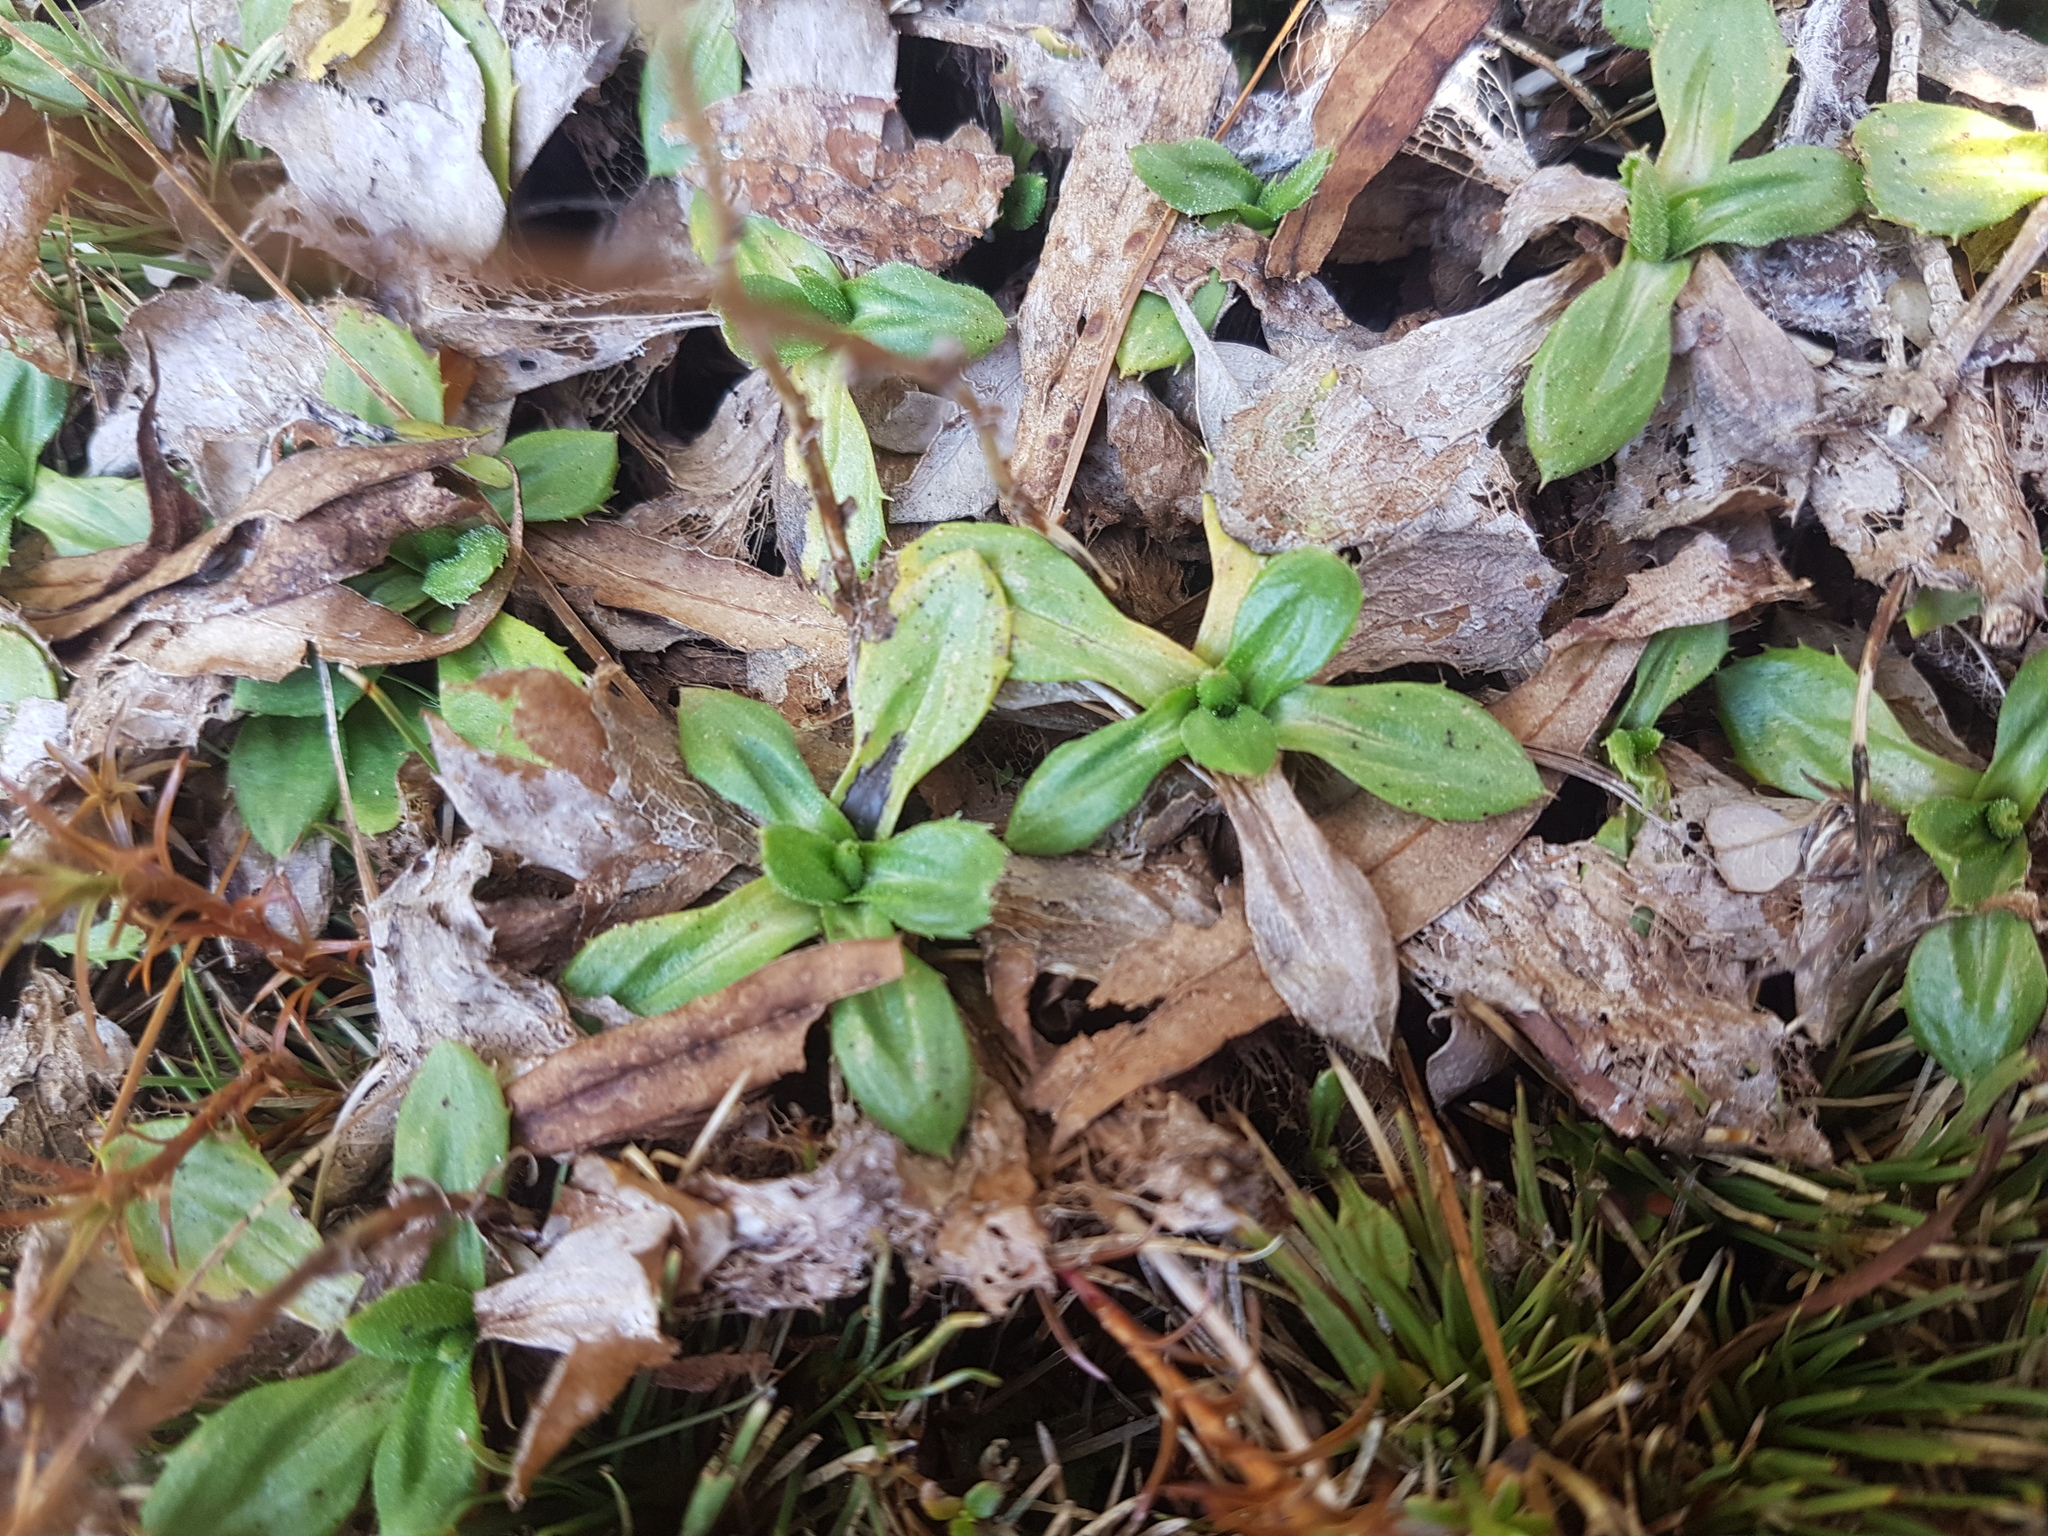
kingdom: Plantae
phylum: Tracheophyta
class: Magnoliopsida
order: Asterales
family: Asteraceae
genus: Celmisia
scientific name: Celmisia glandulosa
